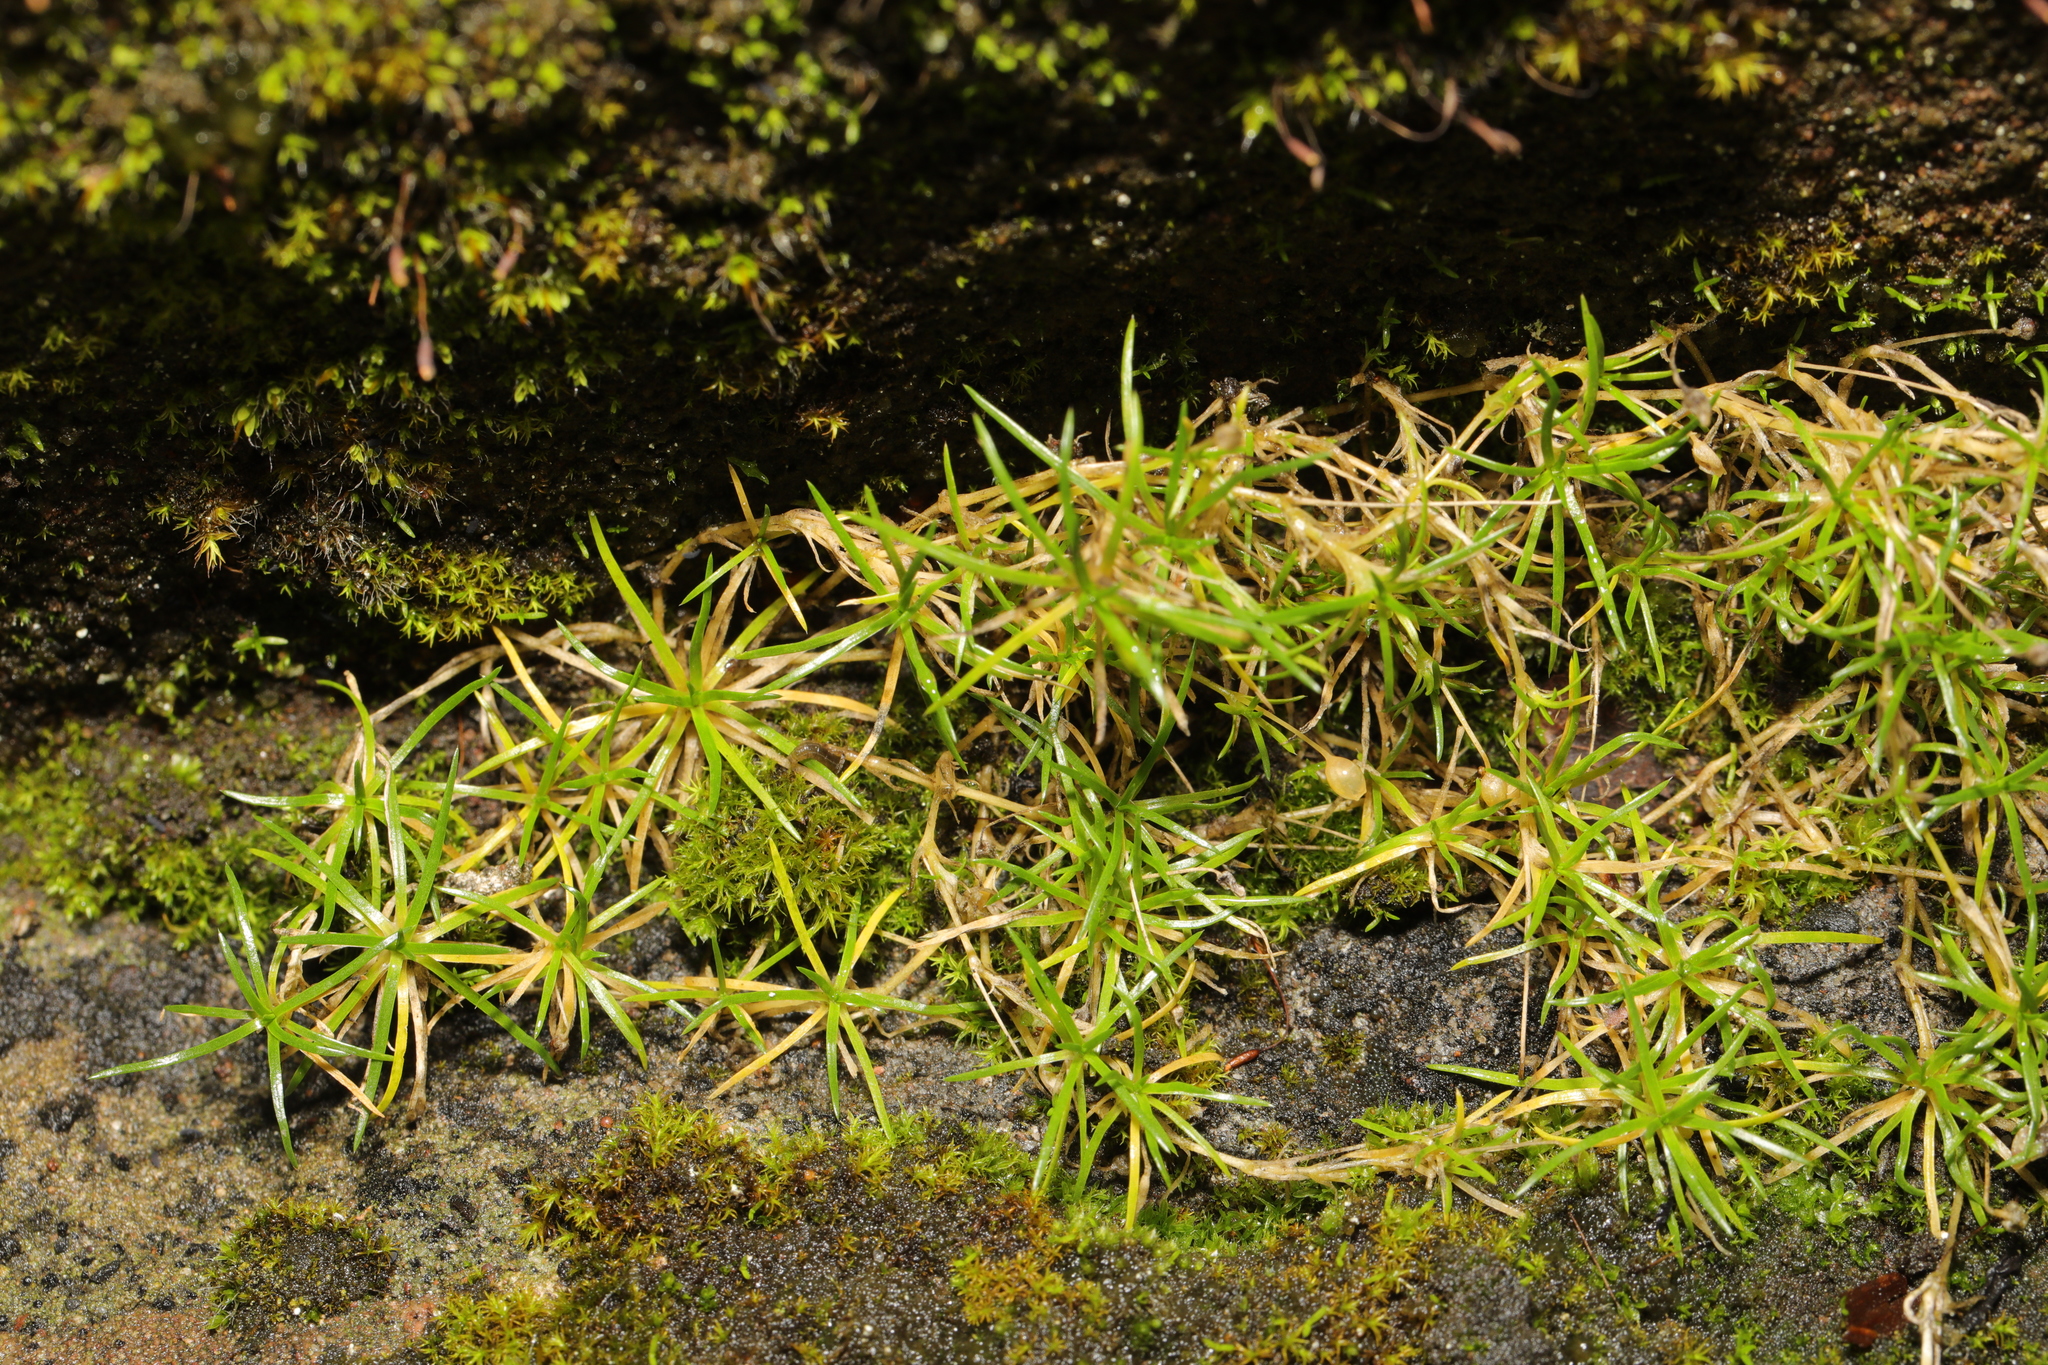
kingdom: Plantae
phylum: Tracheophyta
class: Magnoliopsida
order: Caryophyllales
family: Caryophyllaceae
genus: Sagina
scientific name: Sagina procumbens
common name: Procumbent pearlwort
